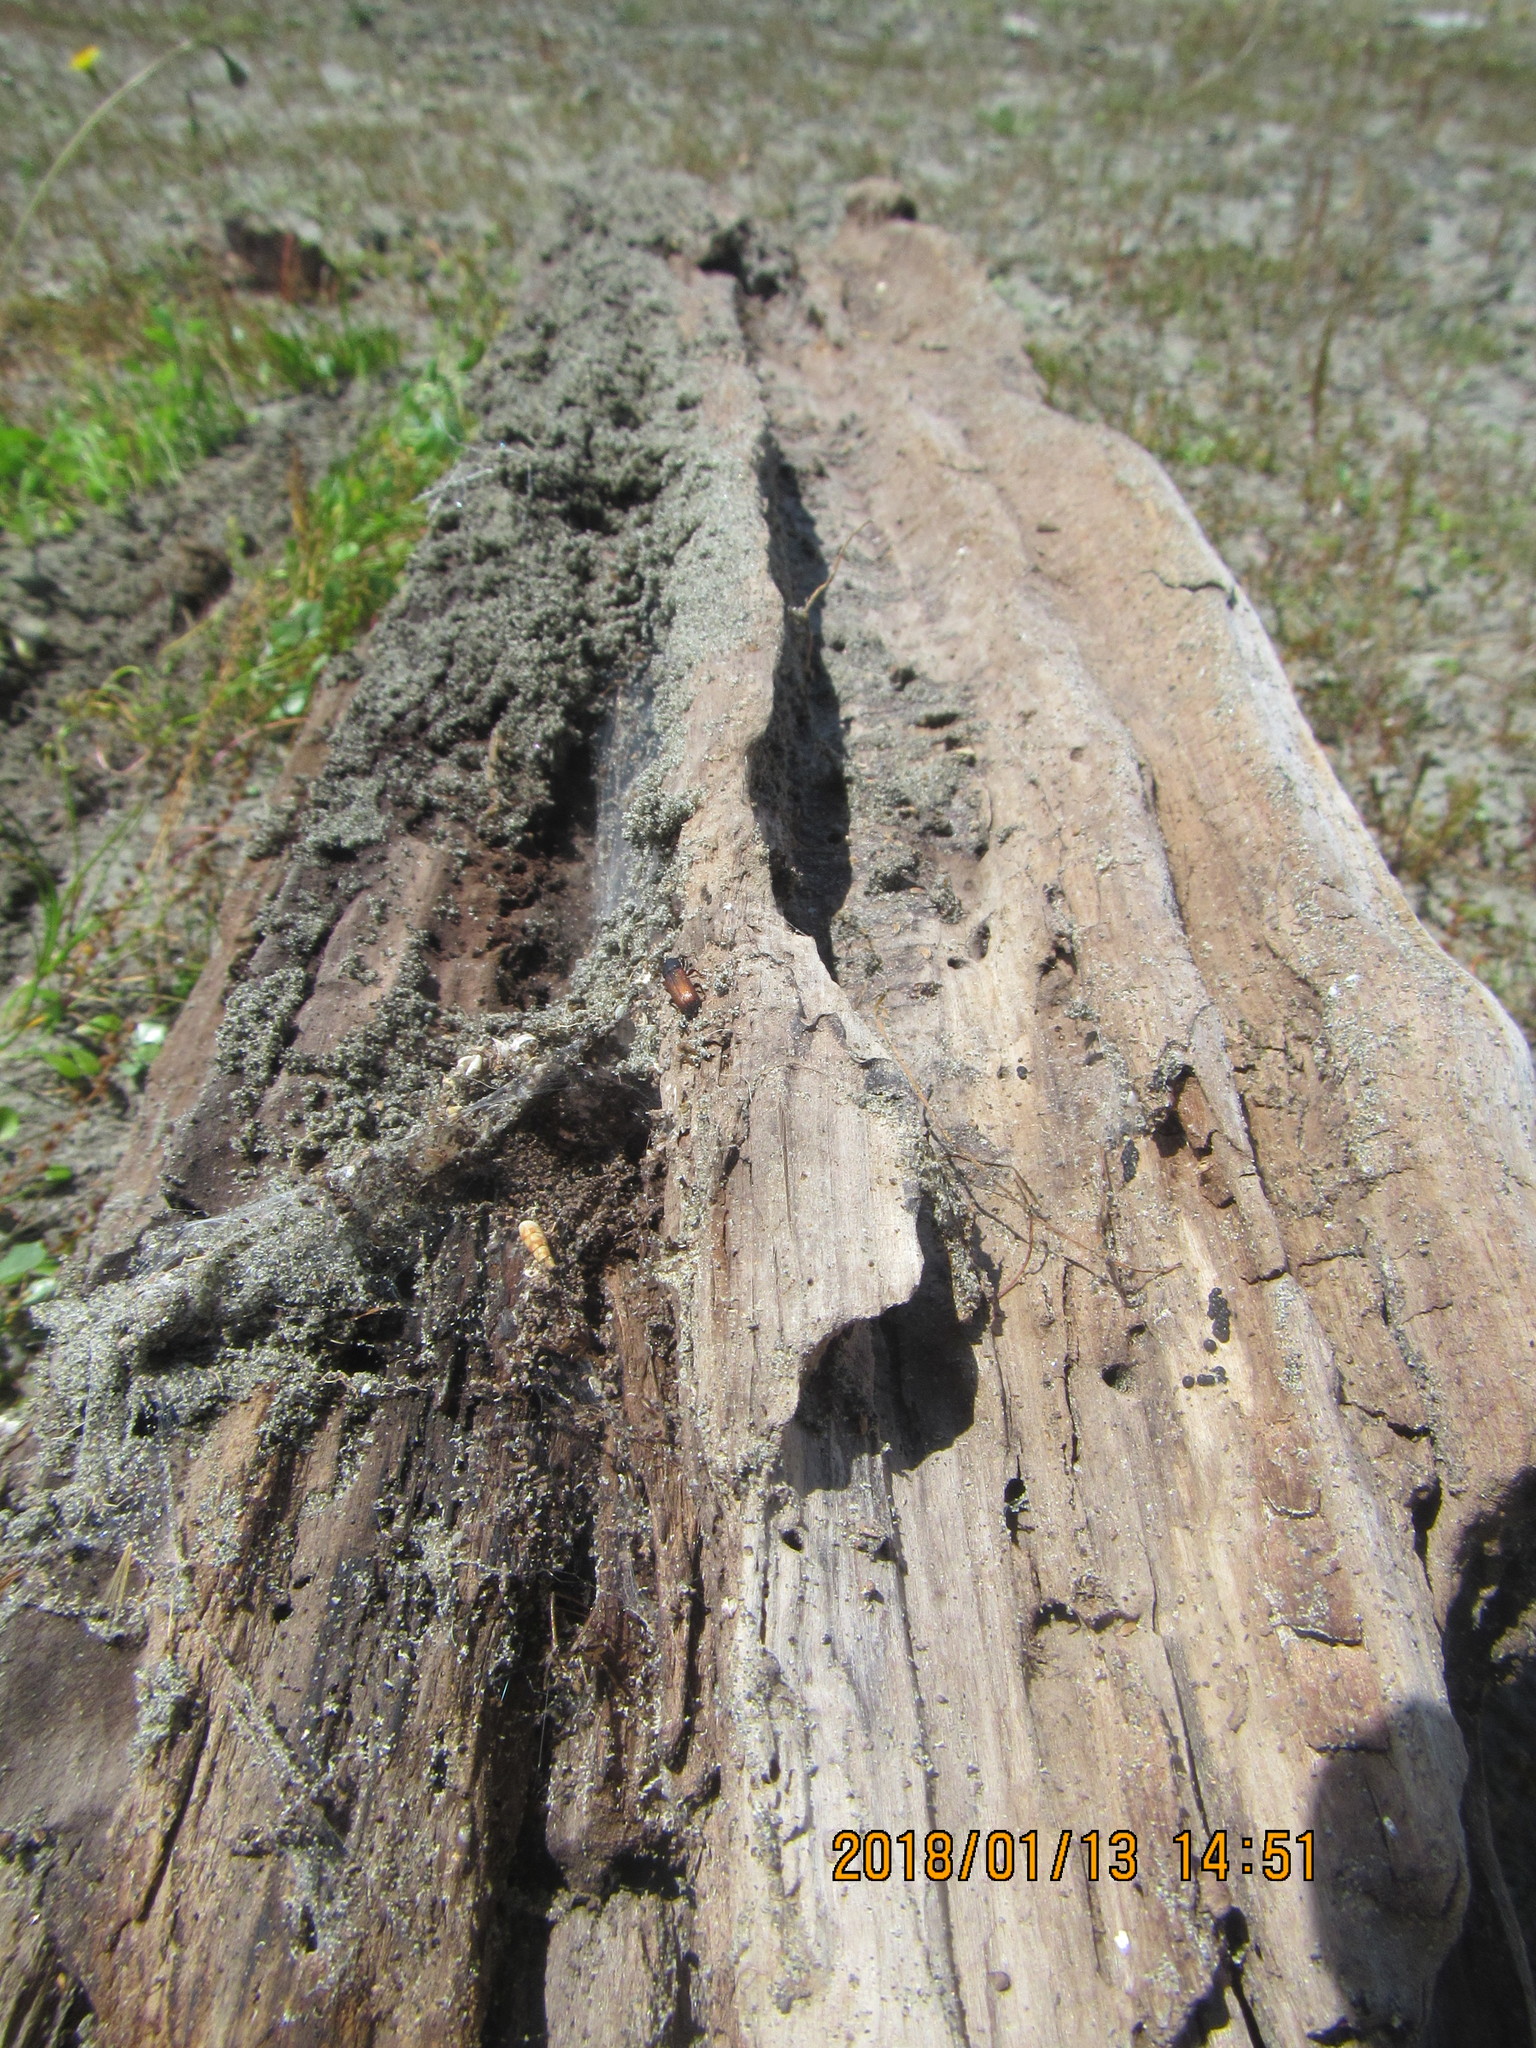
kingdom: Animalia
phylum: Arthropoda
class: Insecta
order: Coleoptera
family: Curculionidae
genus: Mesites
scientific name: Mesites pallidipennis
